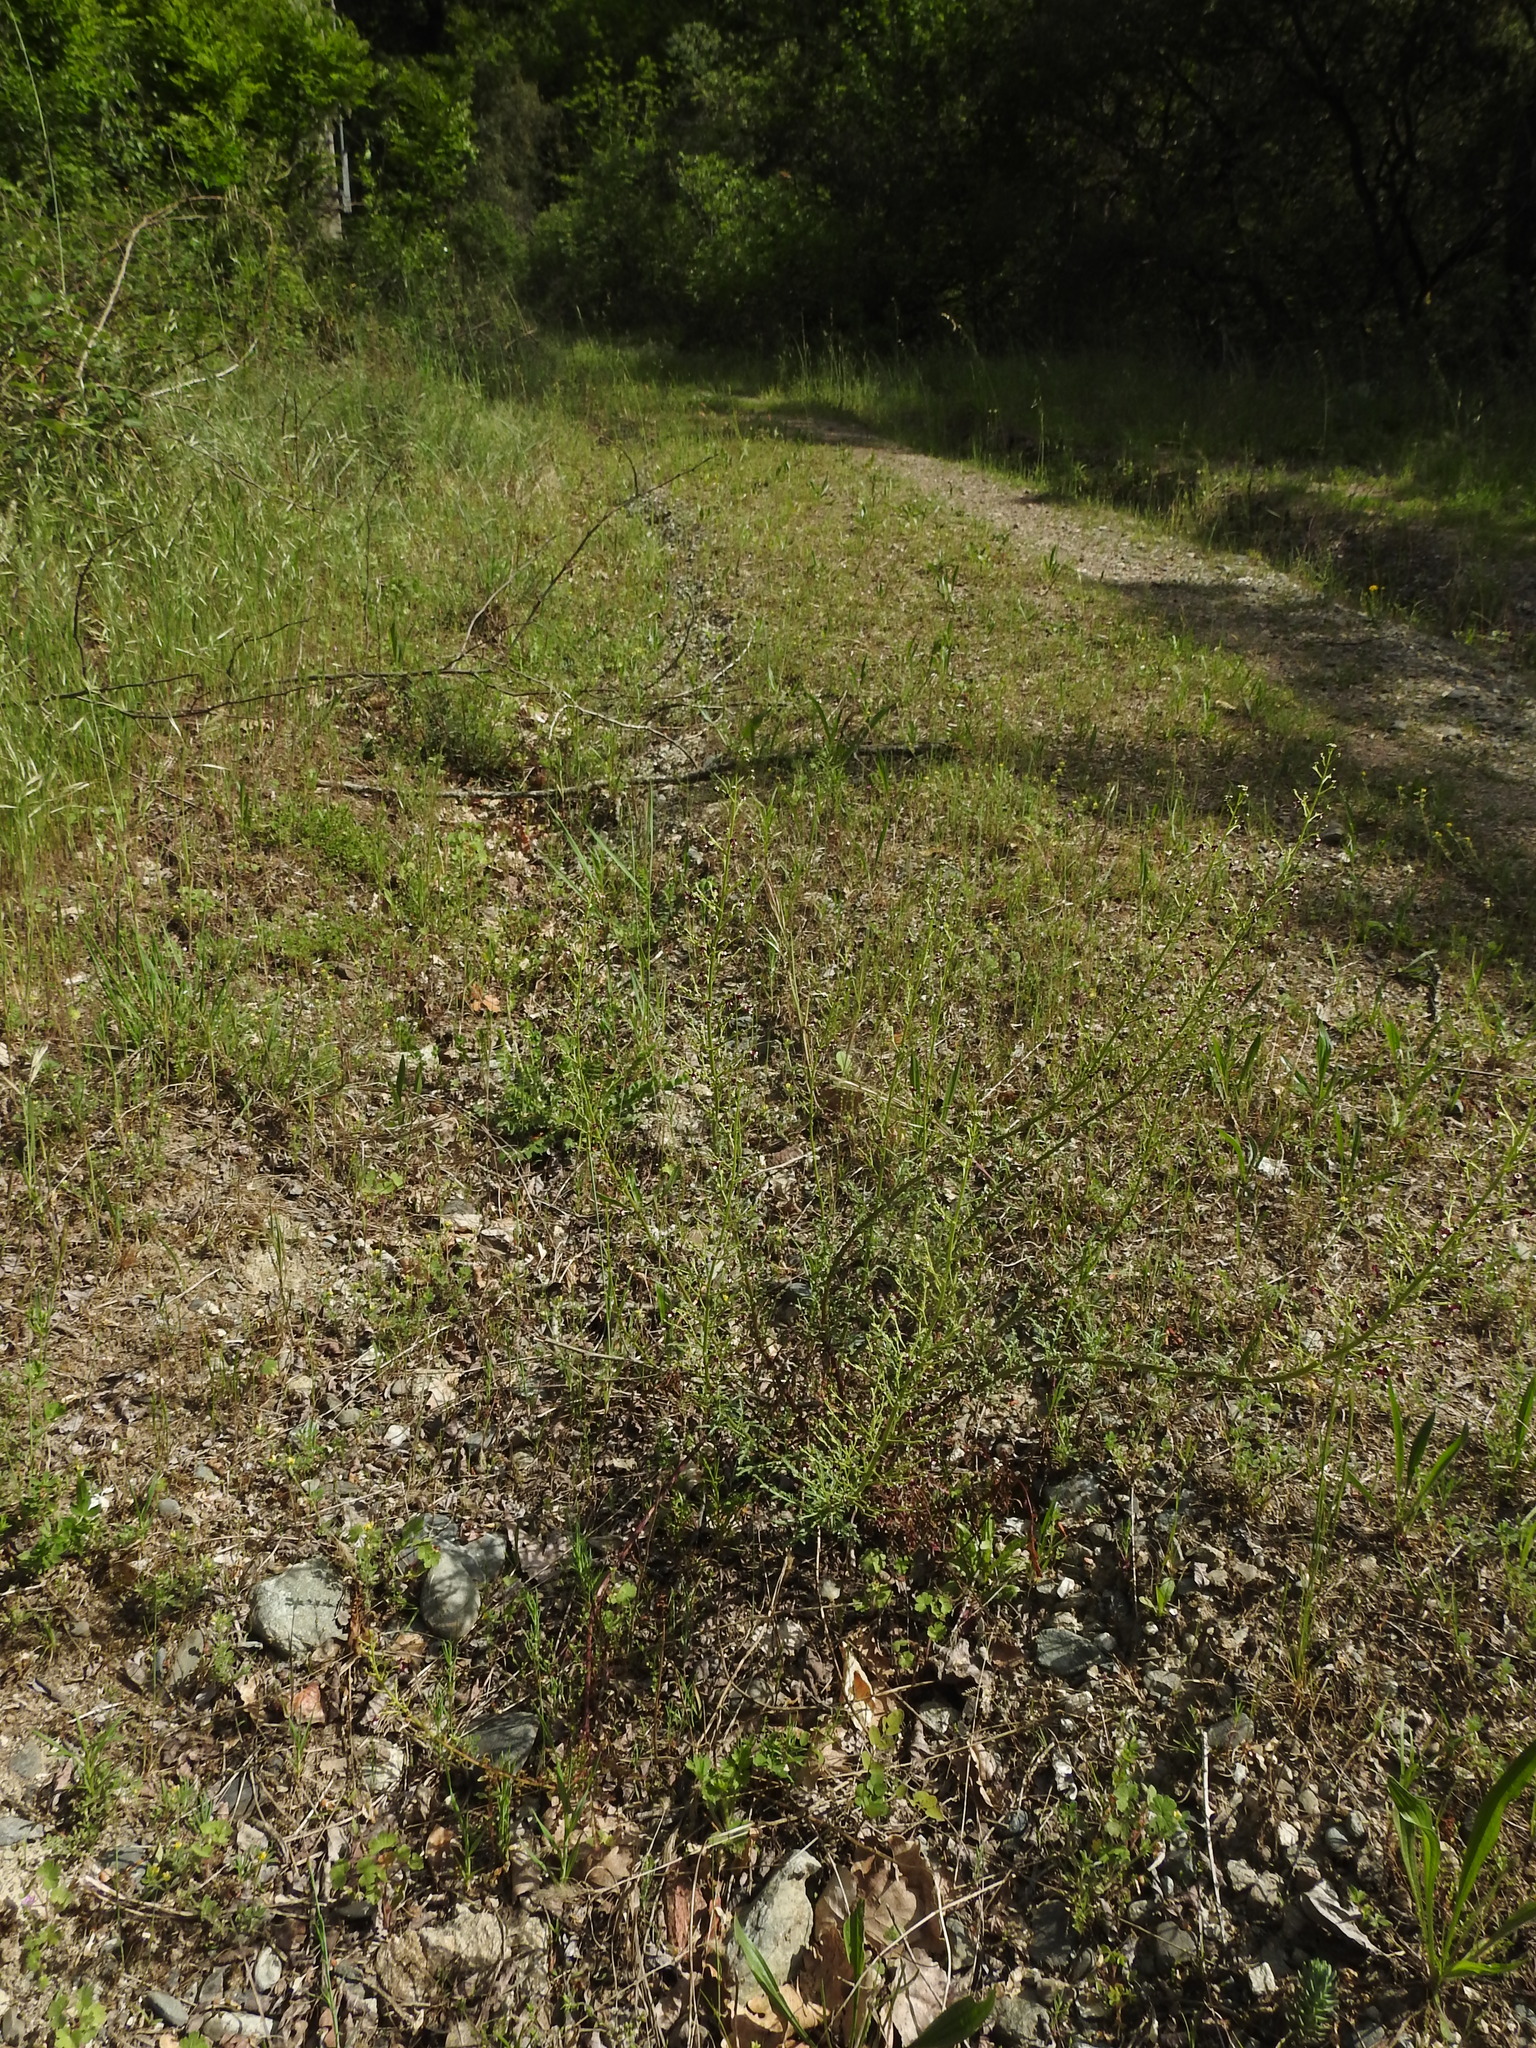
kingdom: Plantae
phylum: Tracheophyta
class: Magnoliopsida
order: Lamiales
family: Scrophulariaceae
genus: Scrophularia
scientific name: Scrophularia canina
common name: French figwort
